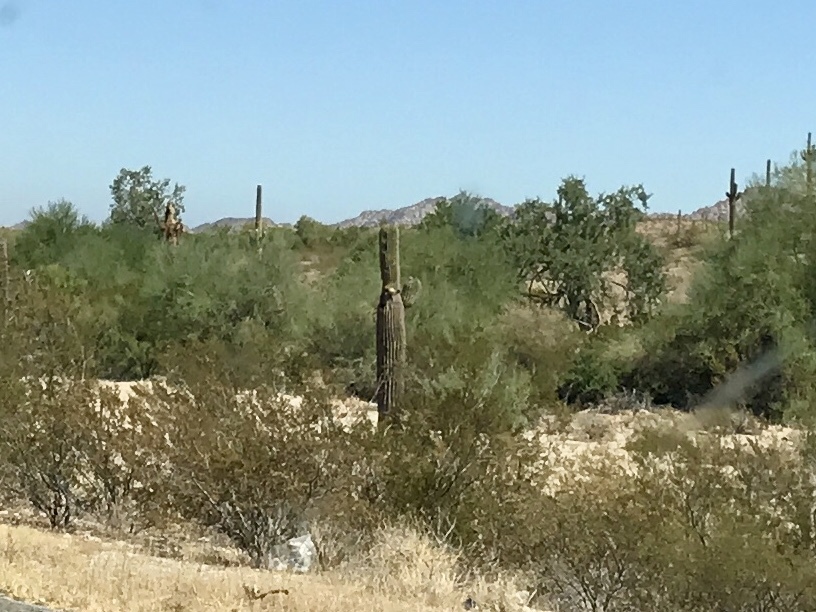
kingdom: Plantae
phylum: Tracheophyta
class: Magnoliopsida
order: Caryophyllales
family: Cactaceae
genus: Carnegiea
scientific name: Carnegiea gigantea
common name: Saguaro
